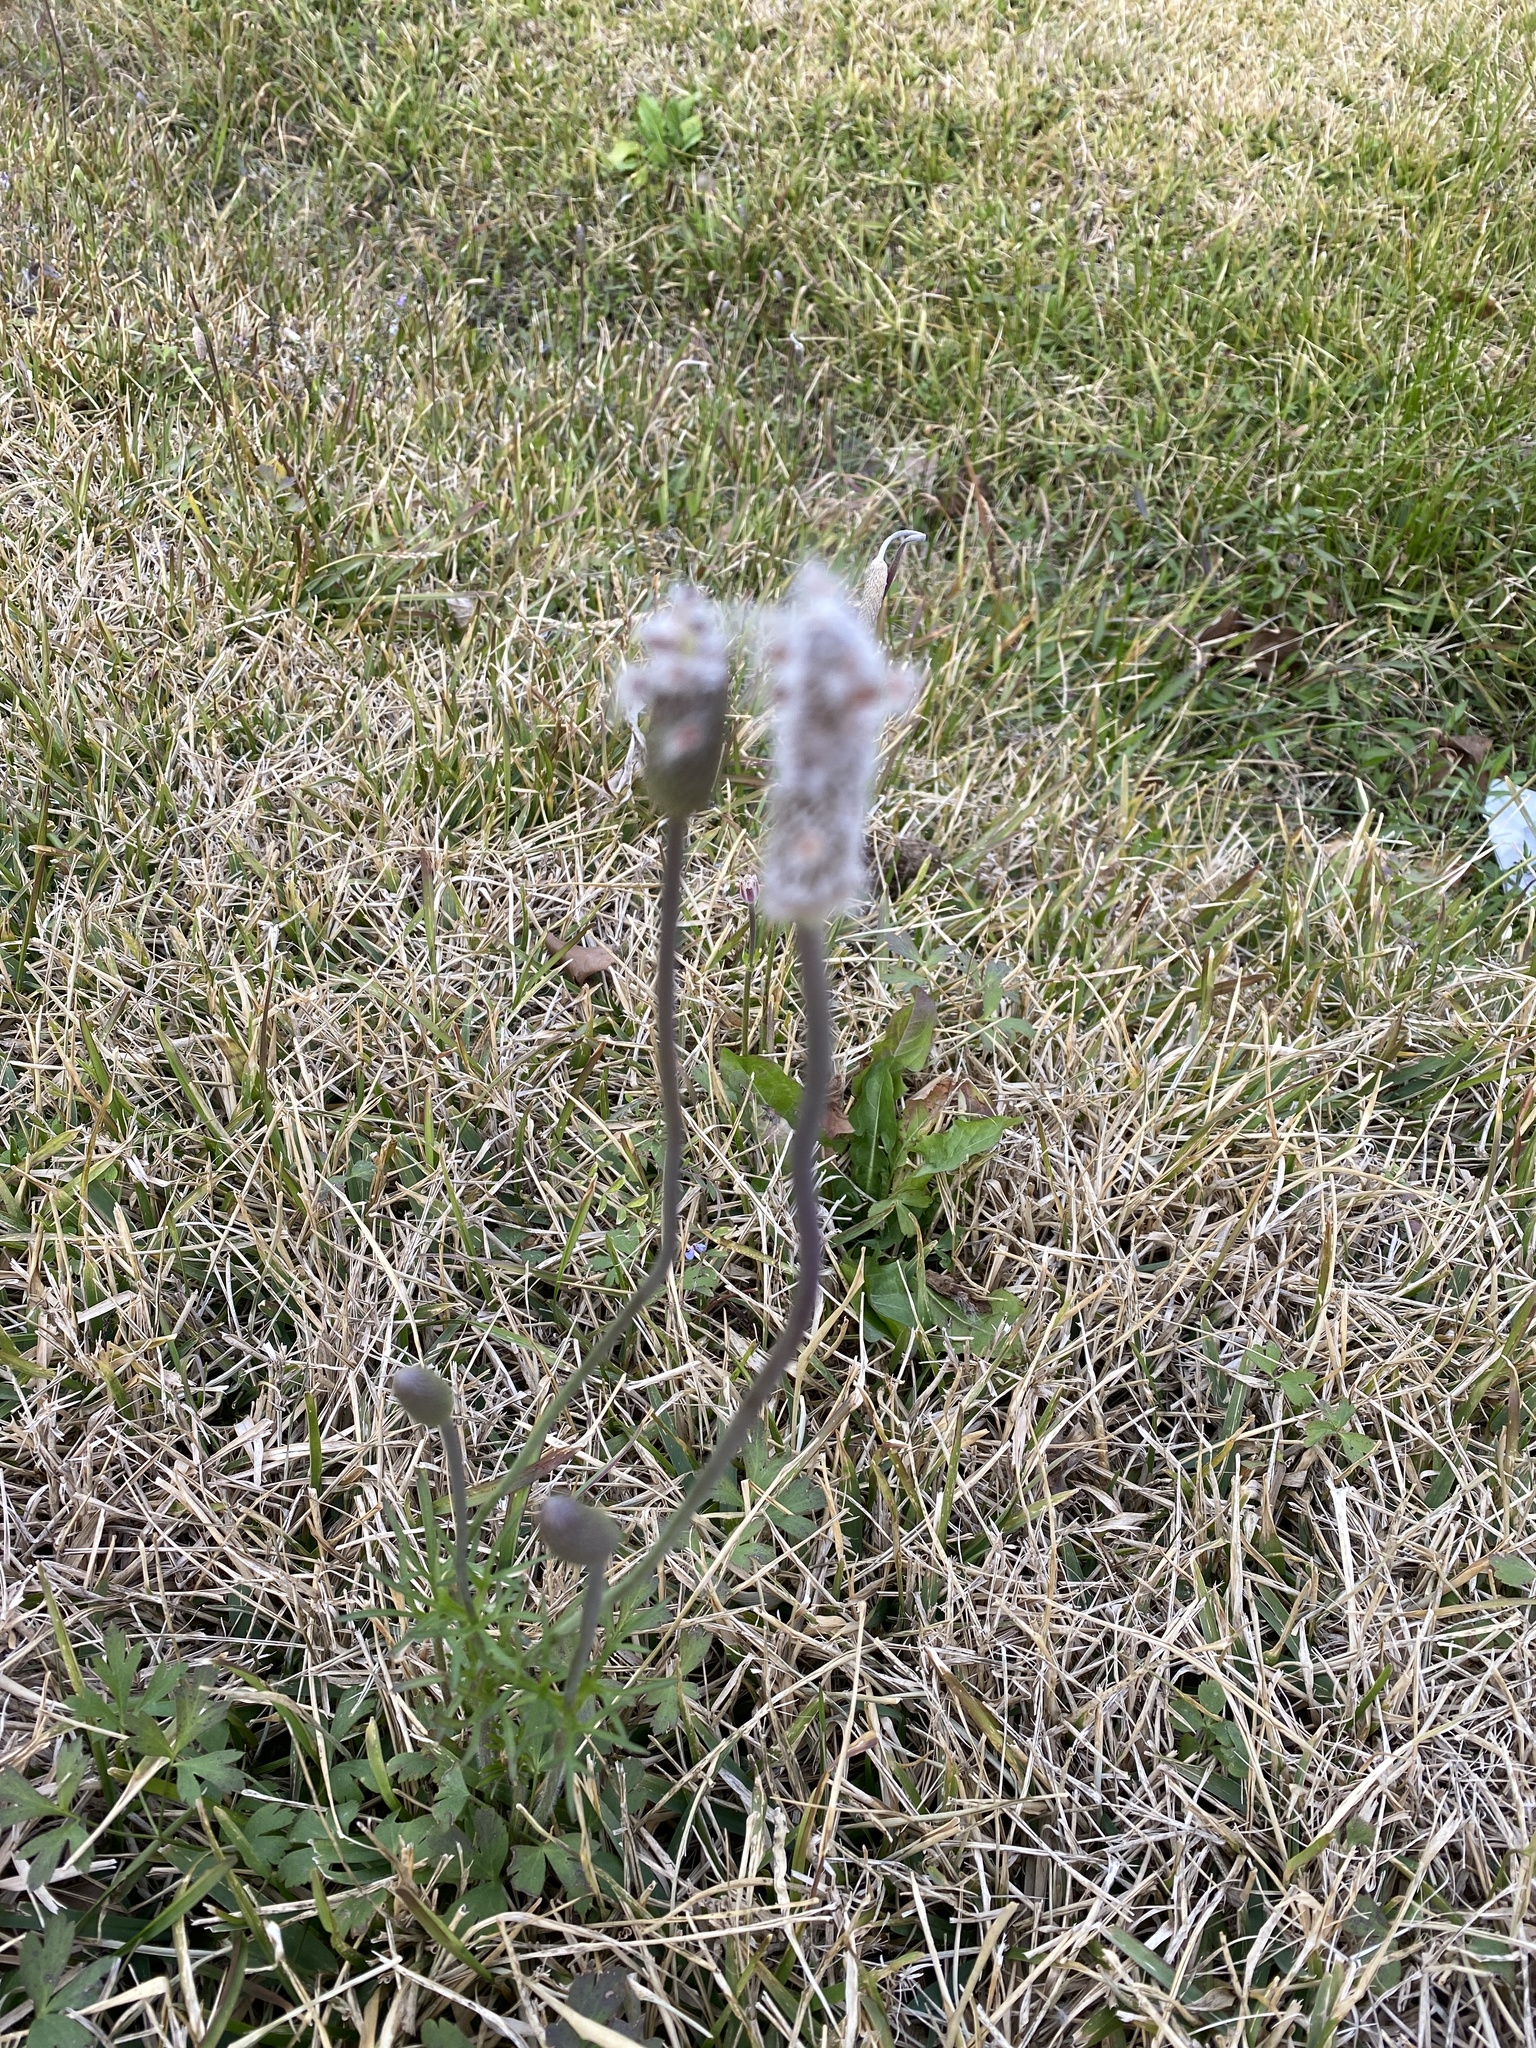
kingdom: Plantae
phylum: Tracheophyta
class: Magnoliopsida
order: Ranunculales
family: Ranunculaceae
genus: Anemone
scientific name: Anemone berlandieri
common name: Ten-petal anemone
